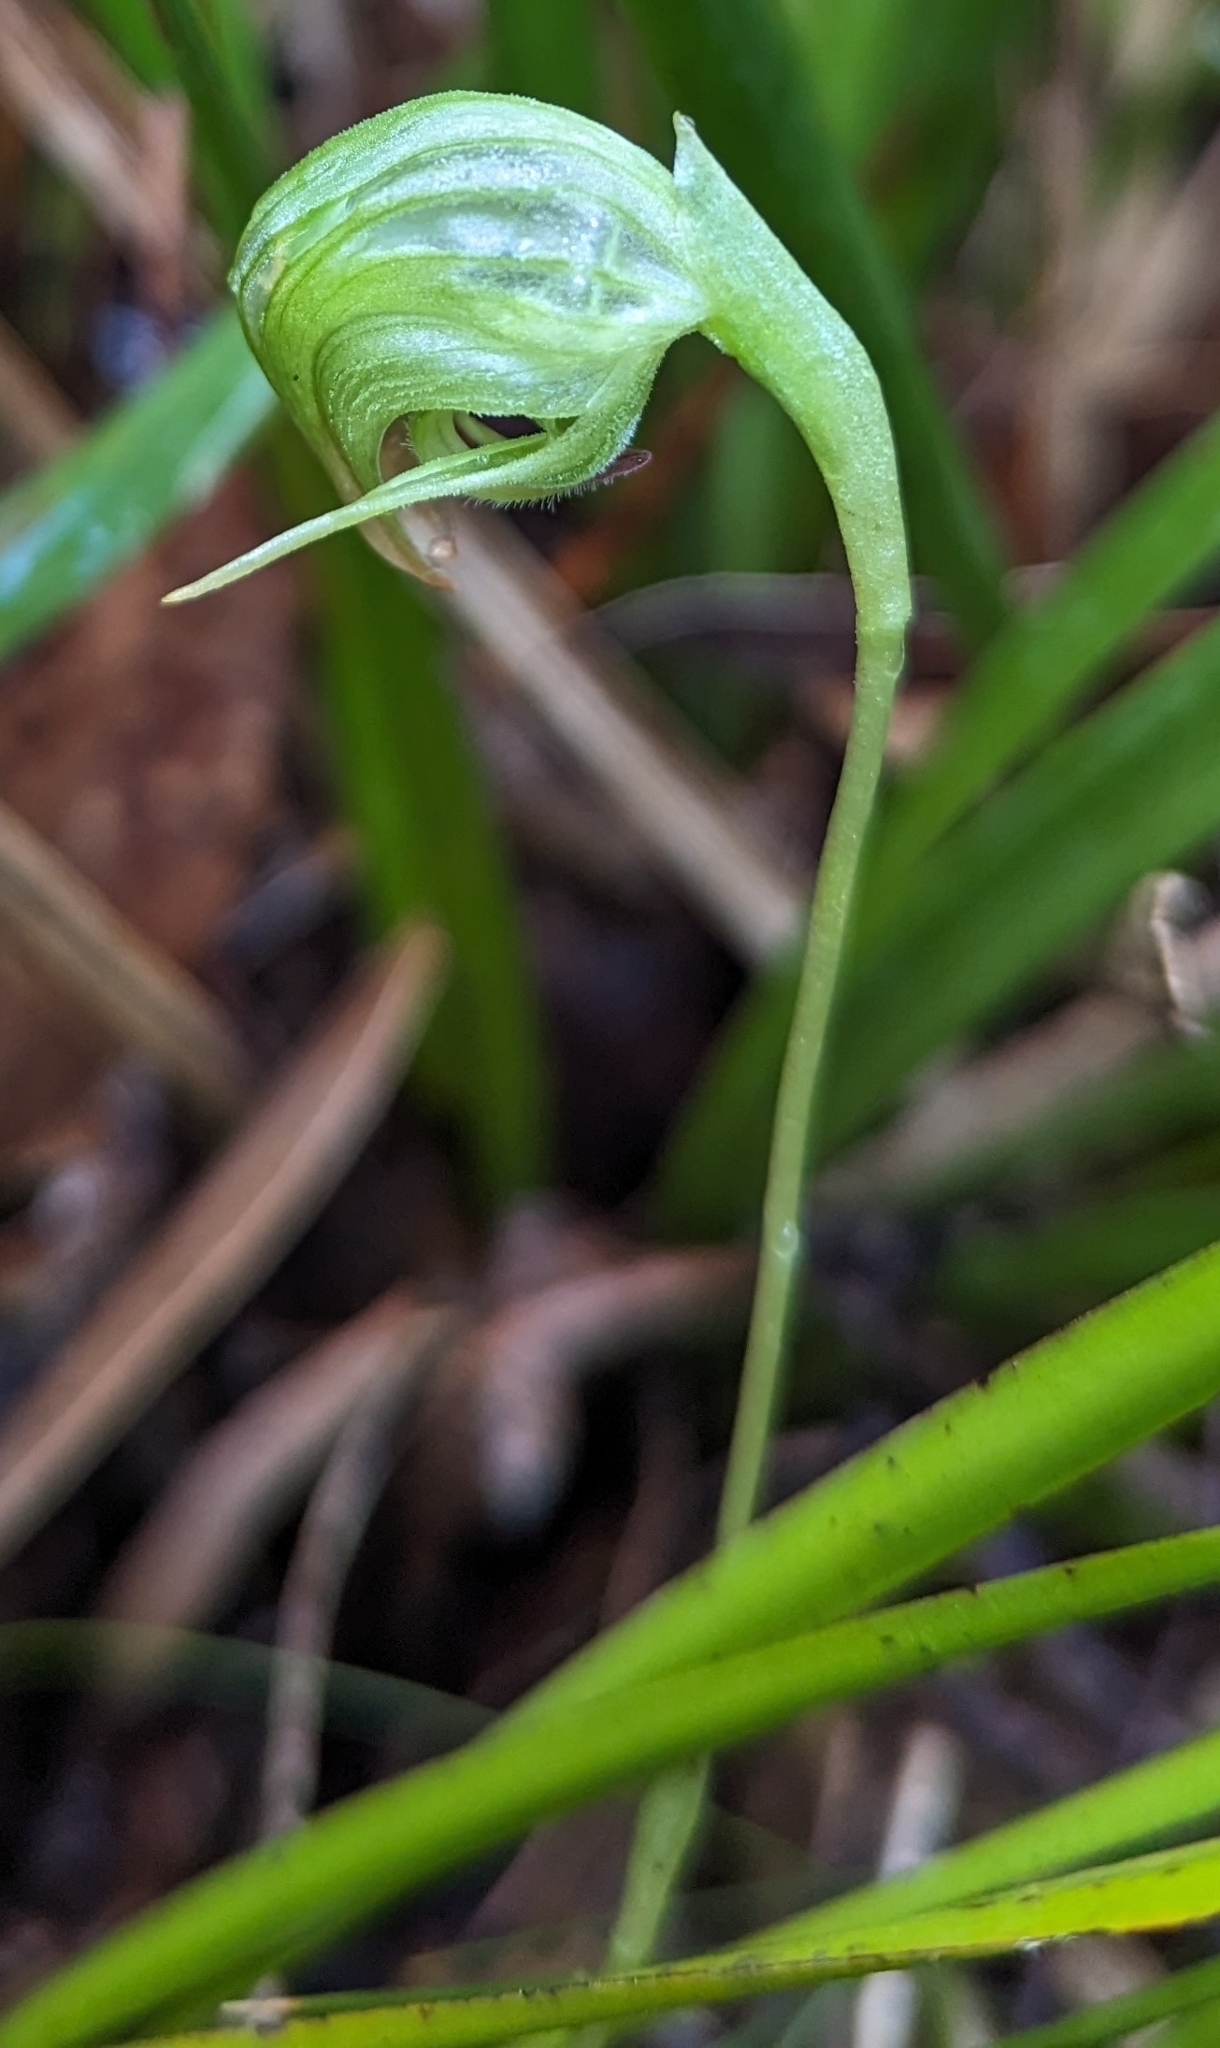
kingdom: Plantae
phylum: Tracheophyta
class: Liliopsida
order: Asparagales
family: Orchidaceae
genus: Pterostylis
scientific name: Pterostylis nutans
